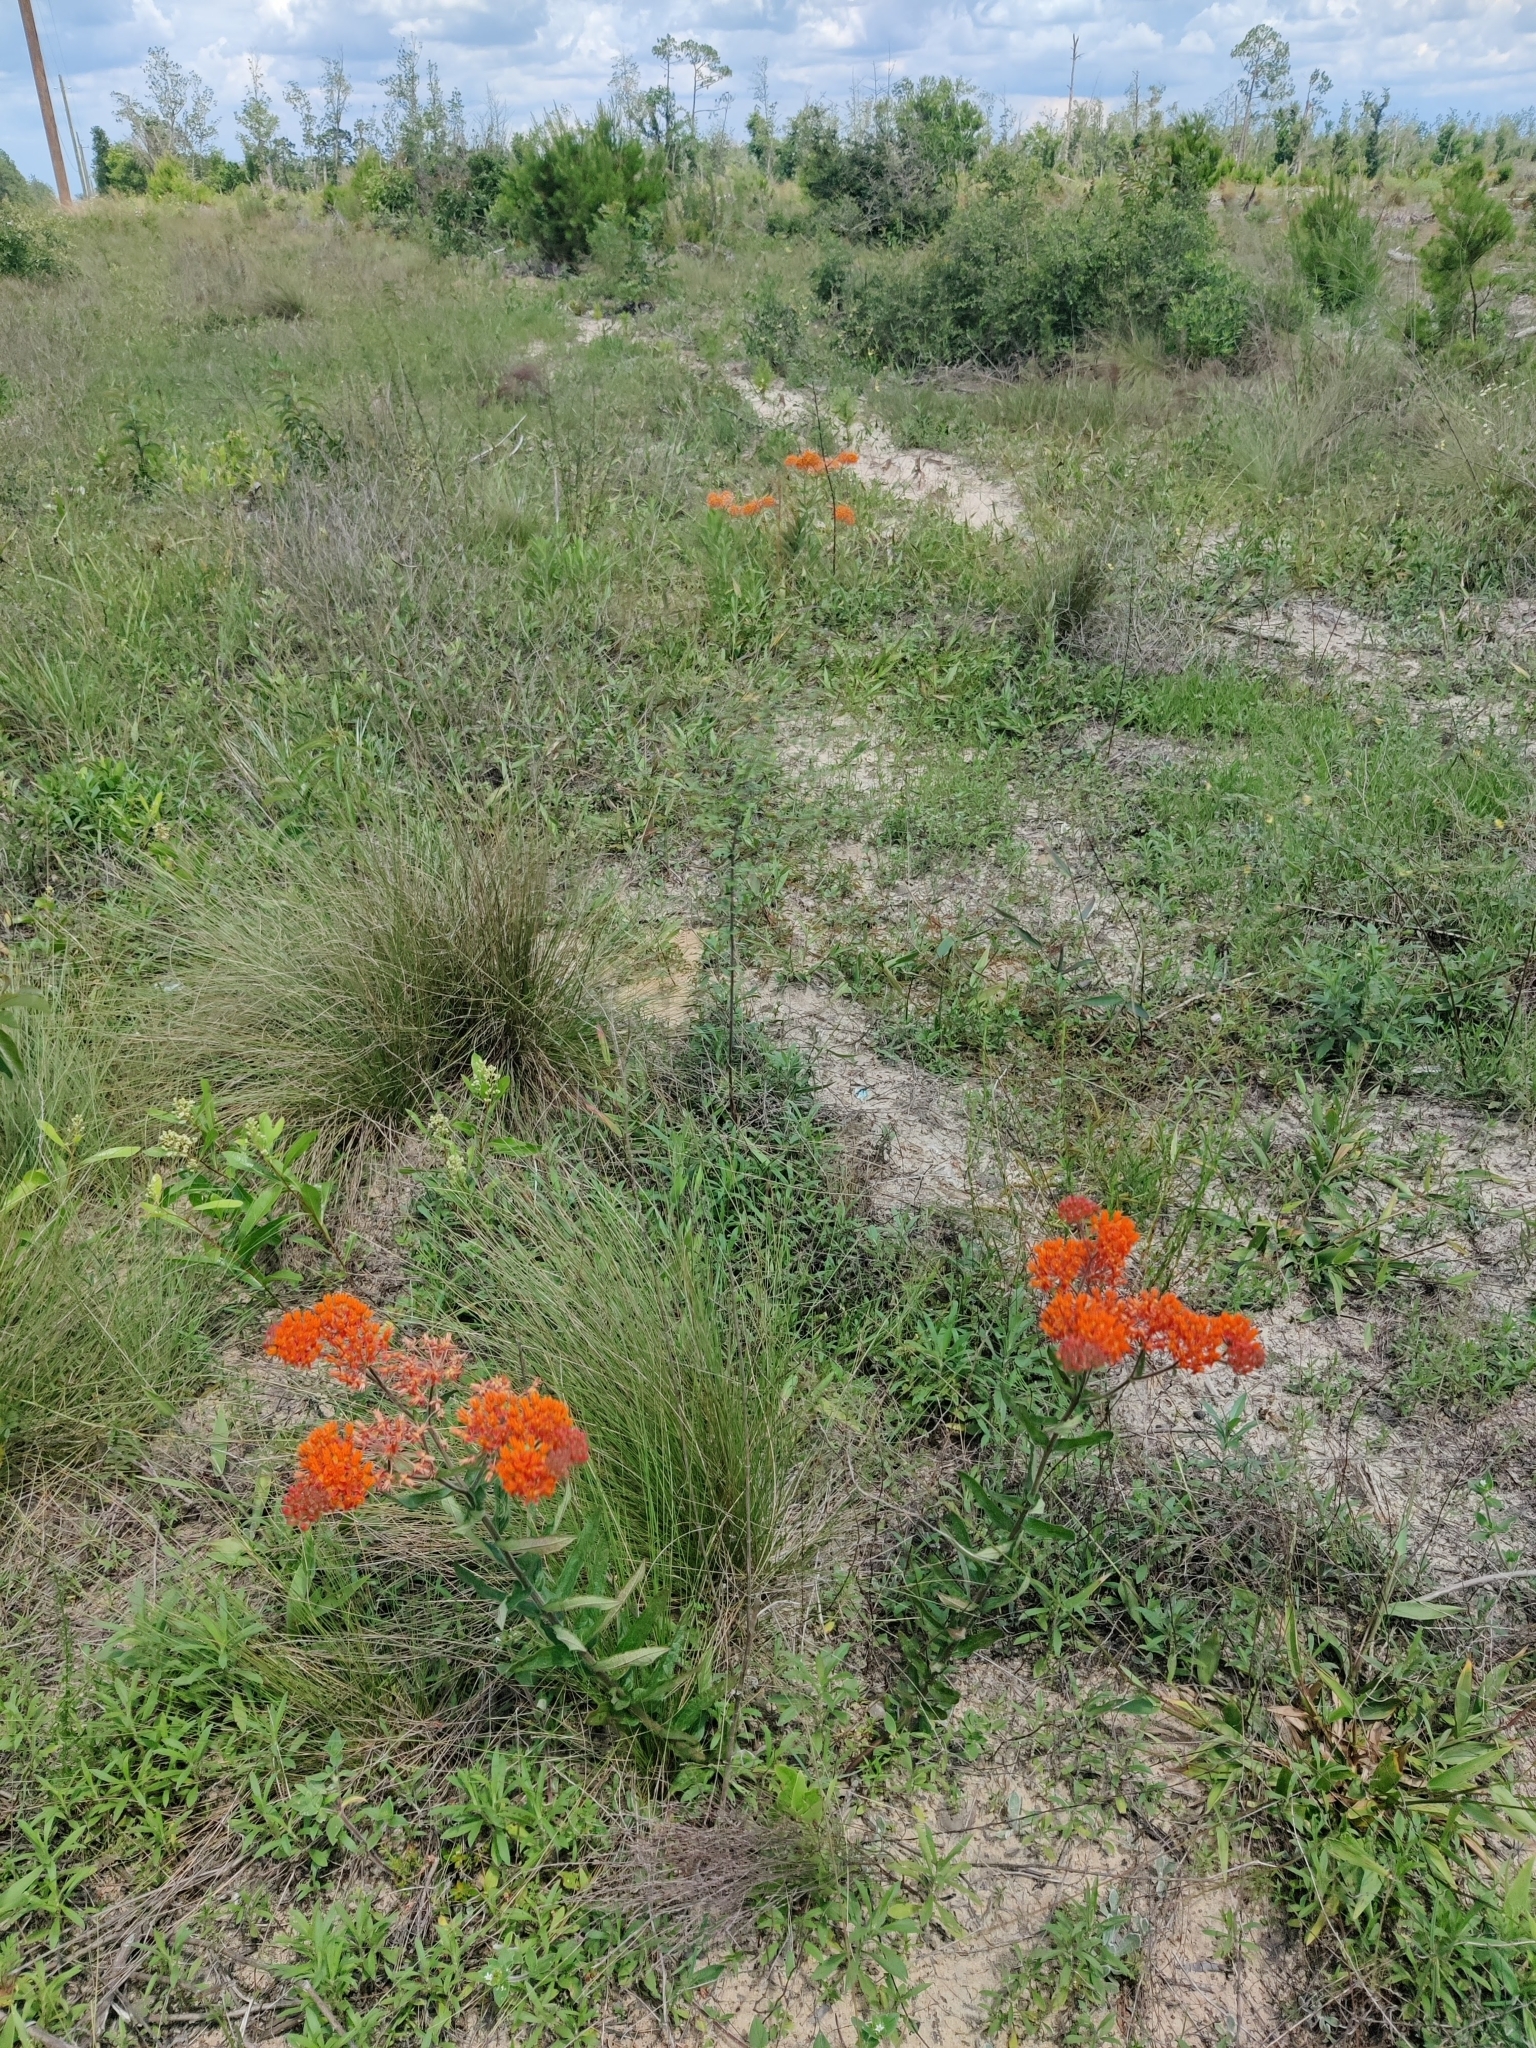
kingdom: Plantae
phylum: Tracheophyta
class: Magnoliopsida
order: Gentianales
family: Apocynaceae
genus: Asclepias
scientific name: Asclepias tuberosa
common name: Butterfly milkweed
